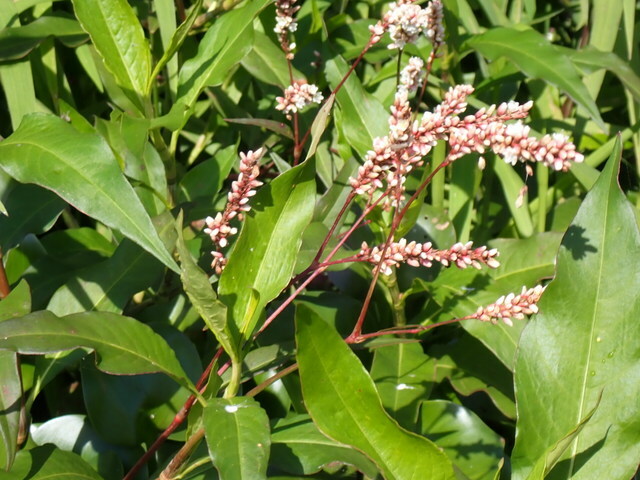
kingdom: Plantae
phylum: Tracheophyta
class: Magnoliopsida
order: Caryophyllales
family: Polygonaceae
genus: Persicaria
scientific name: Persicaria glabra
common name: Denseflower knotweed
